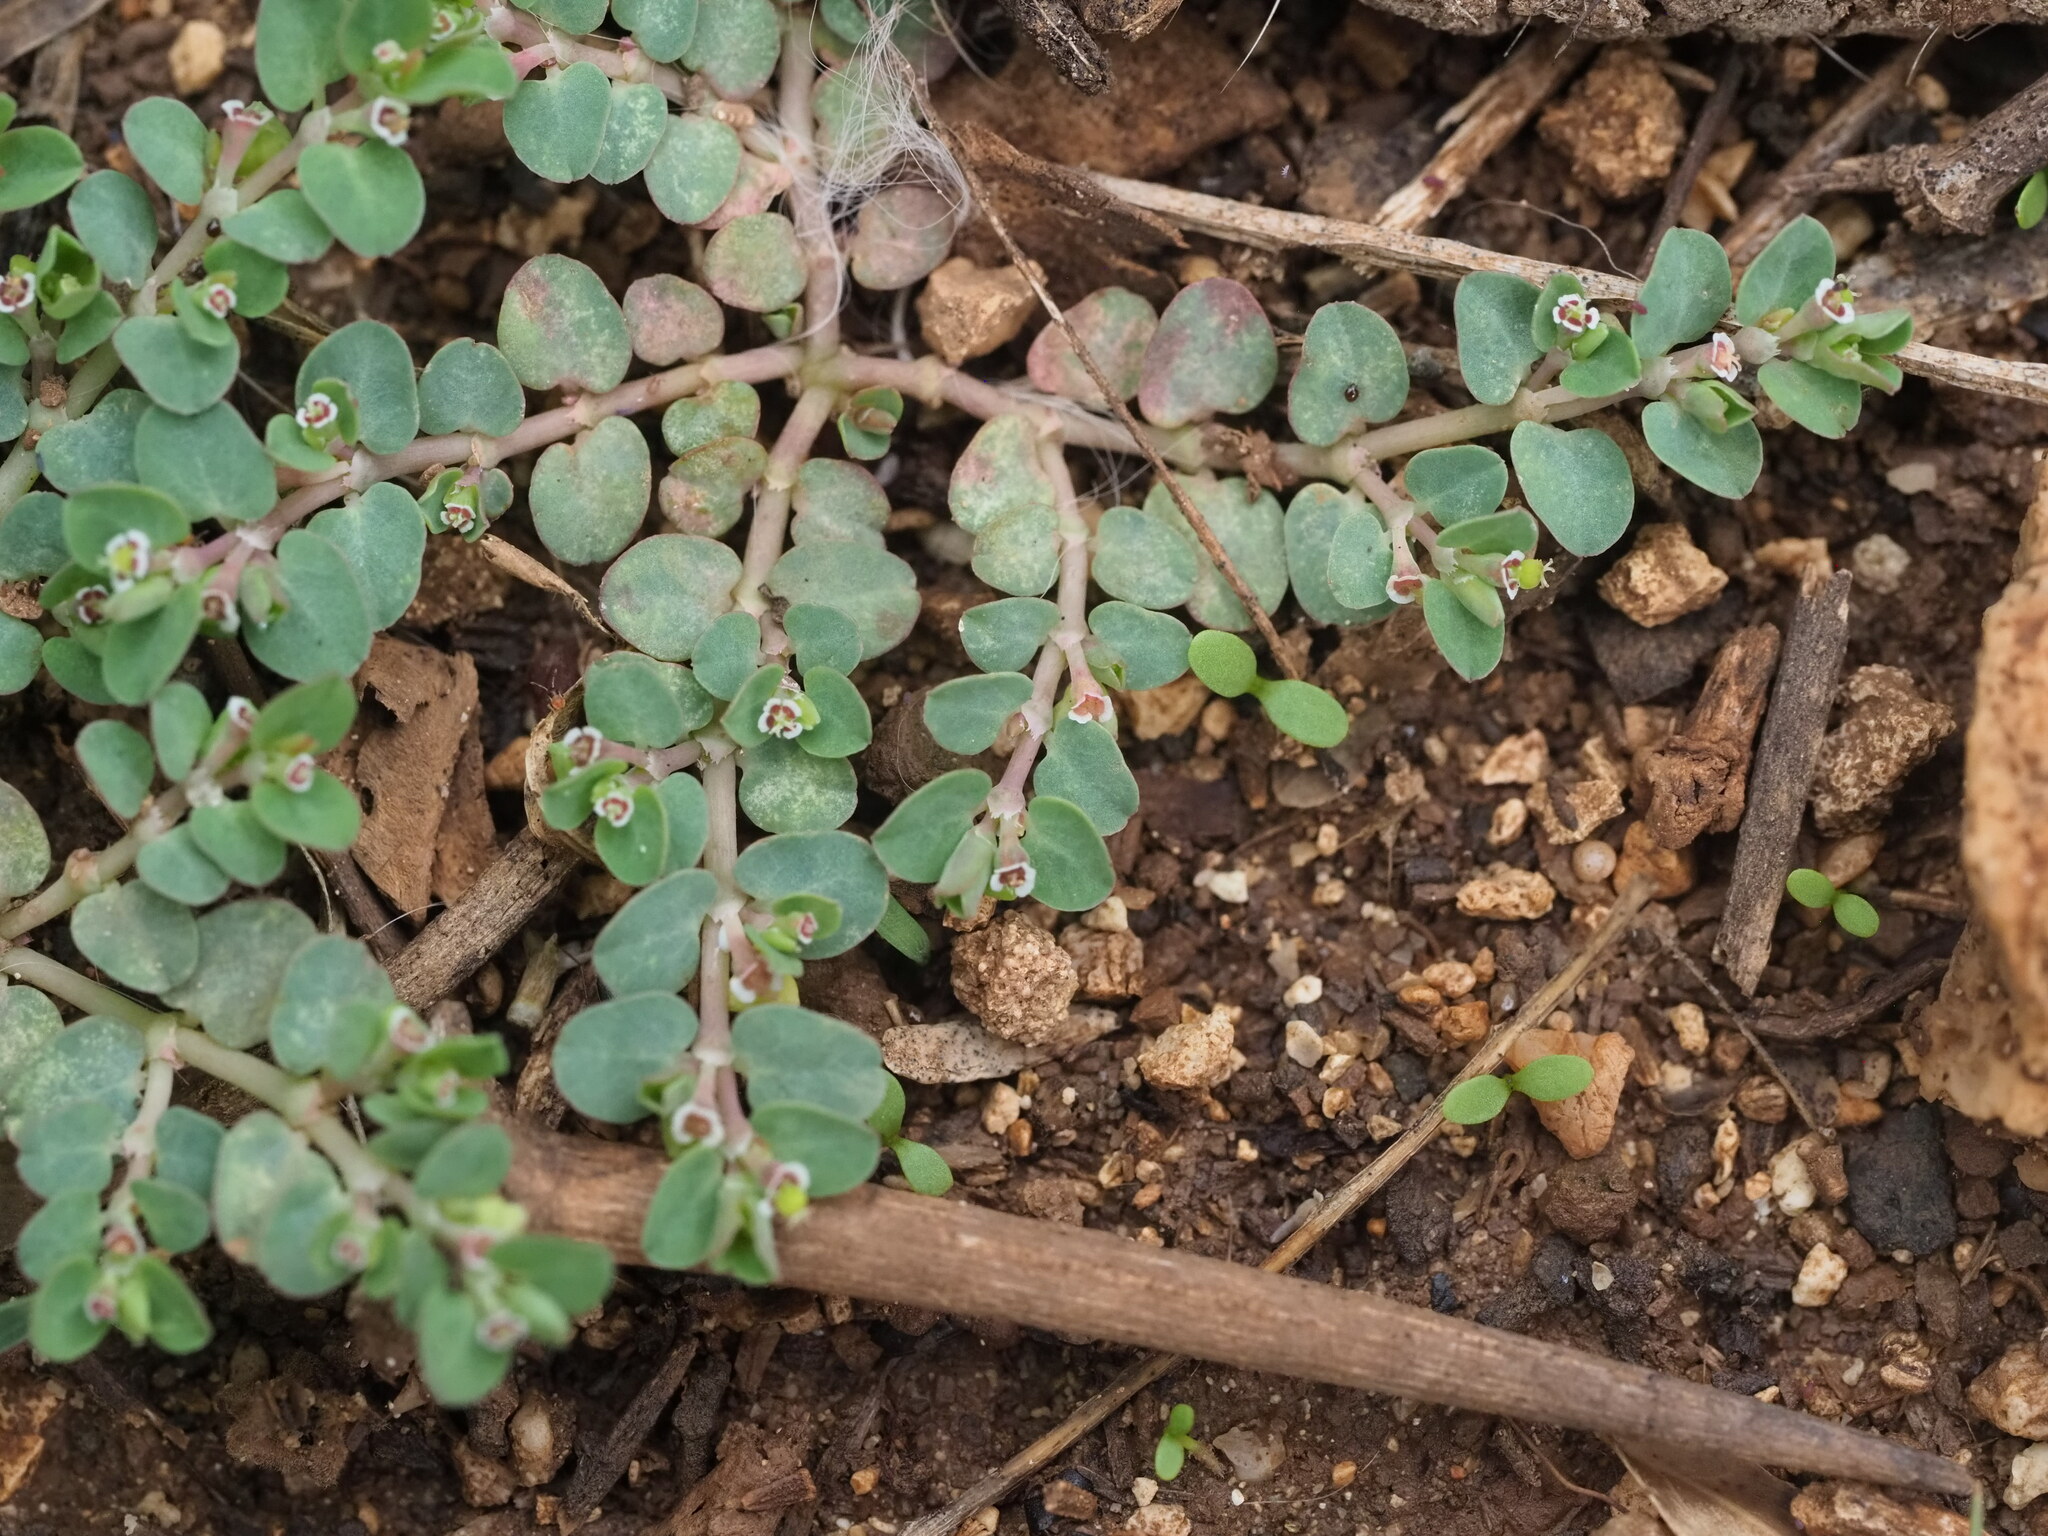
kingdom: Plantae
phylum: Tracheophyta
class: Magnoliopsida
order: Malpighiales
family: Euphorbiaceae
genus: Euphorbia
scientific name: Euphorbia serpens
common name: Matted sandmat
